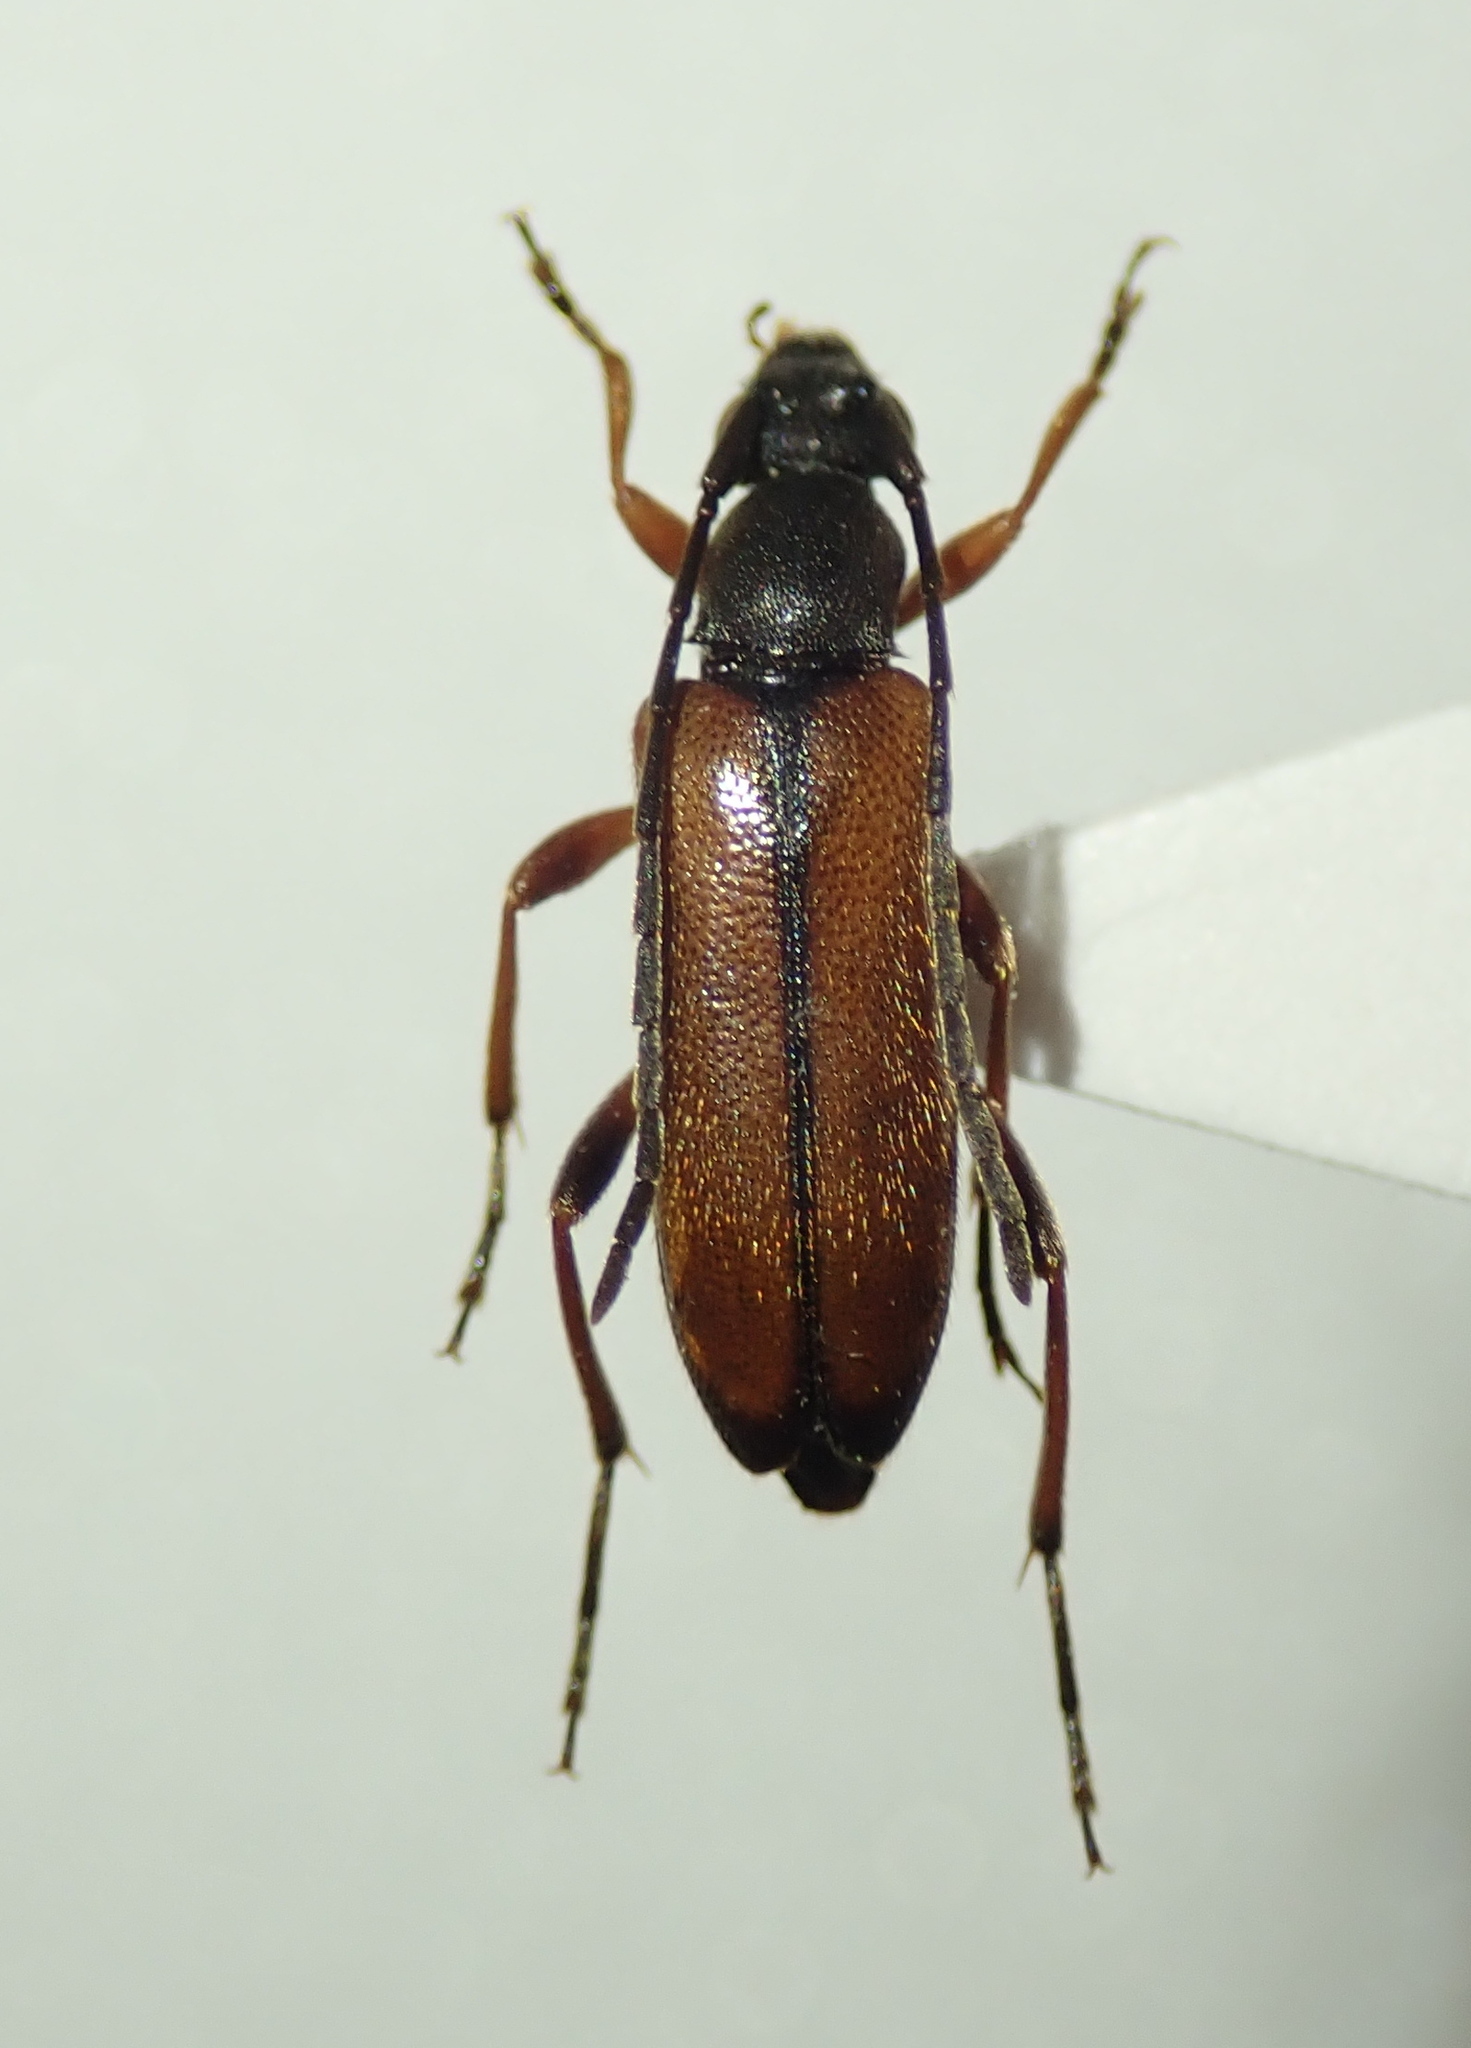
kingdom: Animalia
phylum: Arthropoda
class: Insecta
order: Coleoptera
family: Cerambycidae
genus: Alosterna
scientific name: Alosterna tabacicolor
